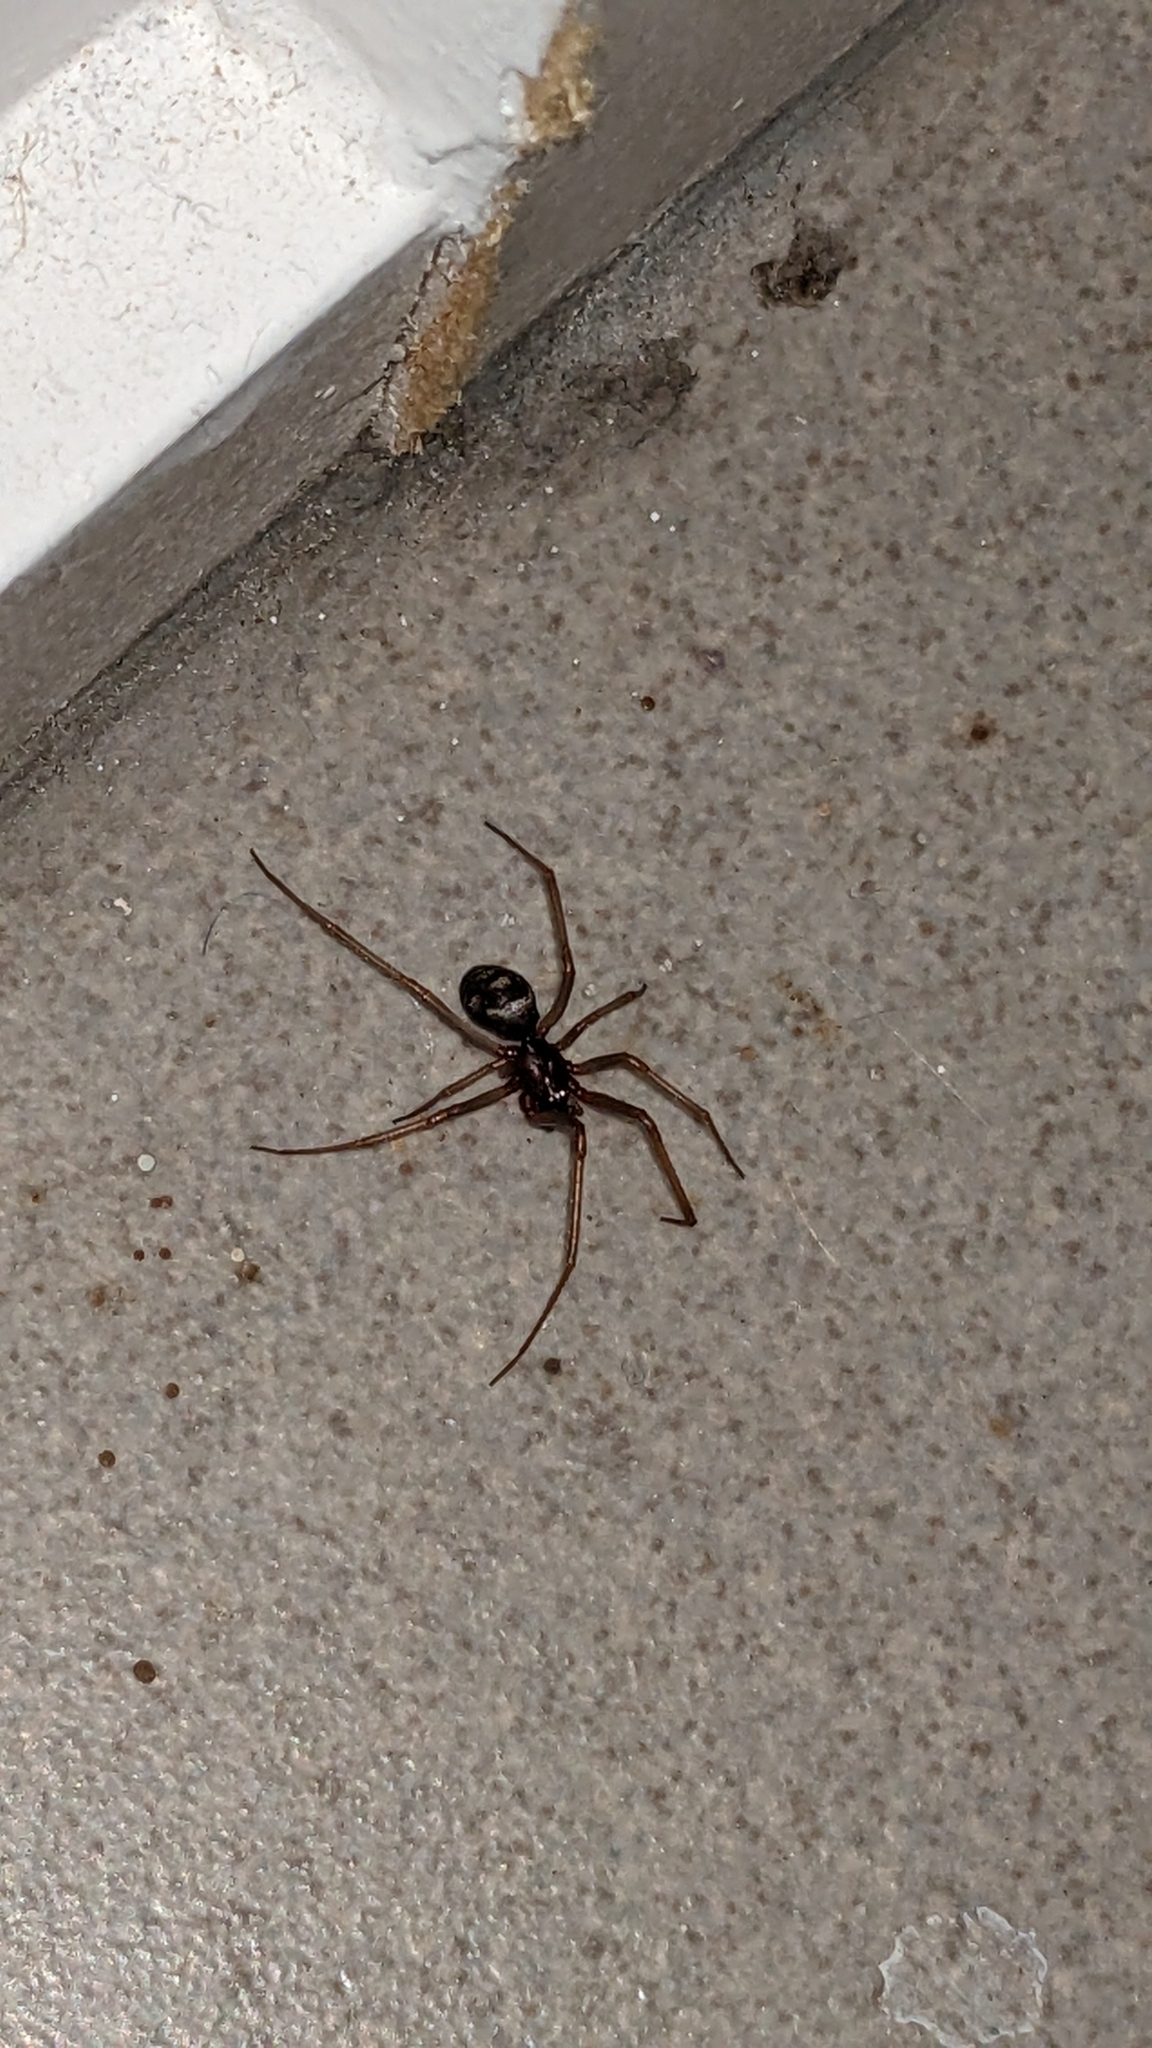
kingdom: Animalia
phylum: Arthropoda
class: Arachnida
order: Araneae
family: Theridiidae
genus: Steatoda
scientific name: Steatoda grossa
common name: False black widow
